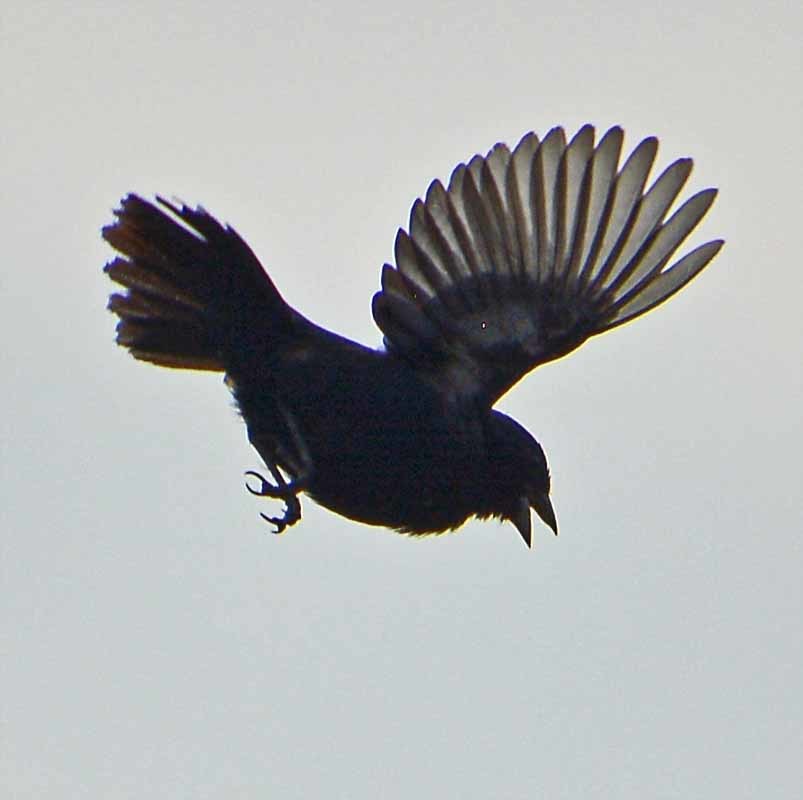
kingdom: Animalia
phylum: Chordata
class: Aves
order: Passeriformes
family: Thraupidae
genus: Volatinia
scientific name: Volatinia jacarina
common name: Blue-black grassquit
